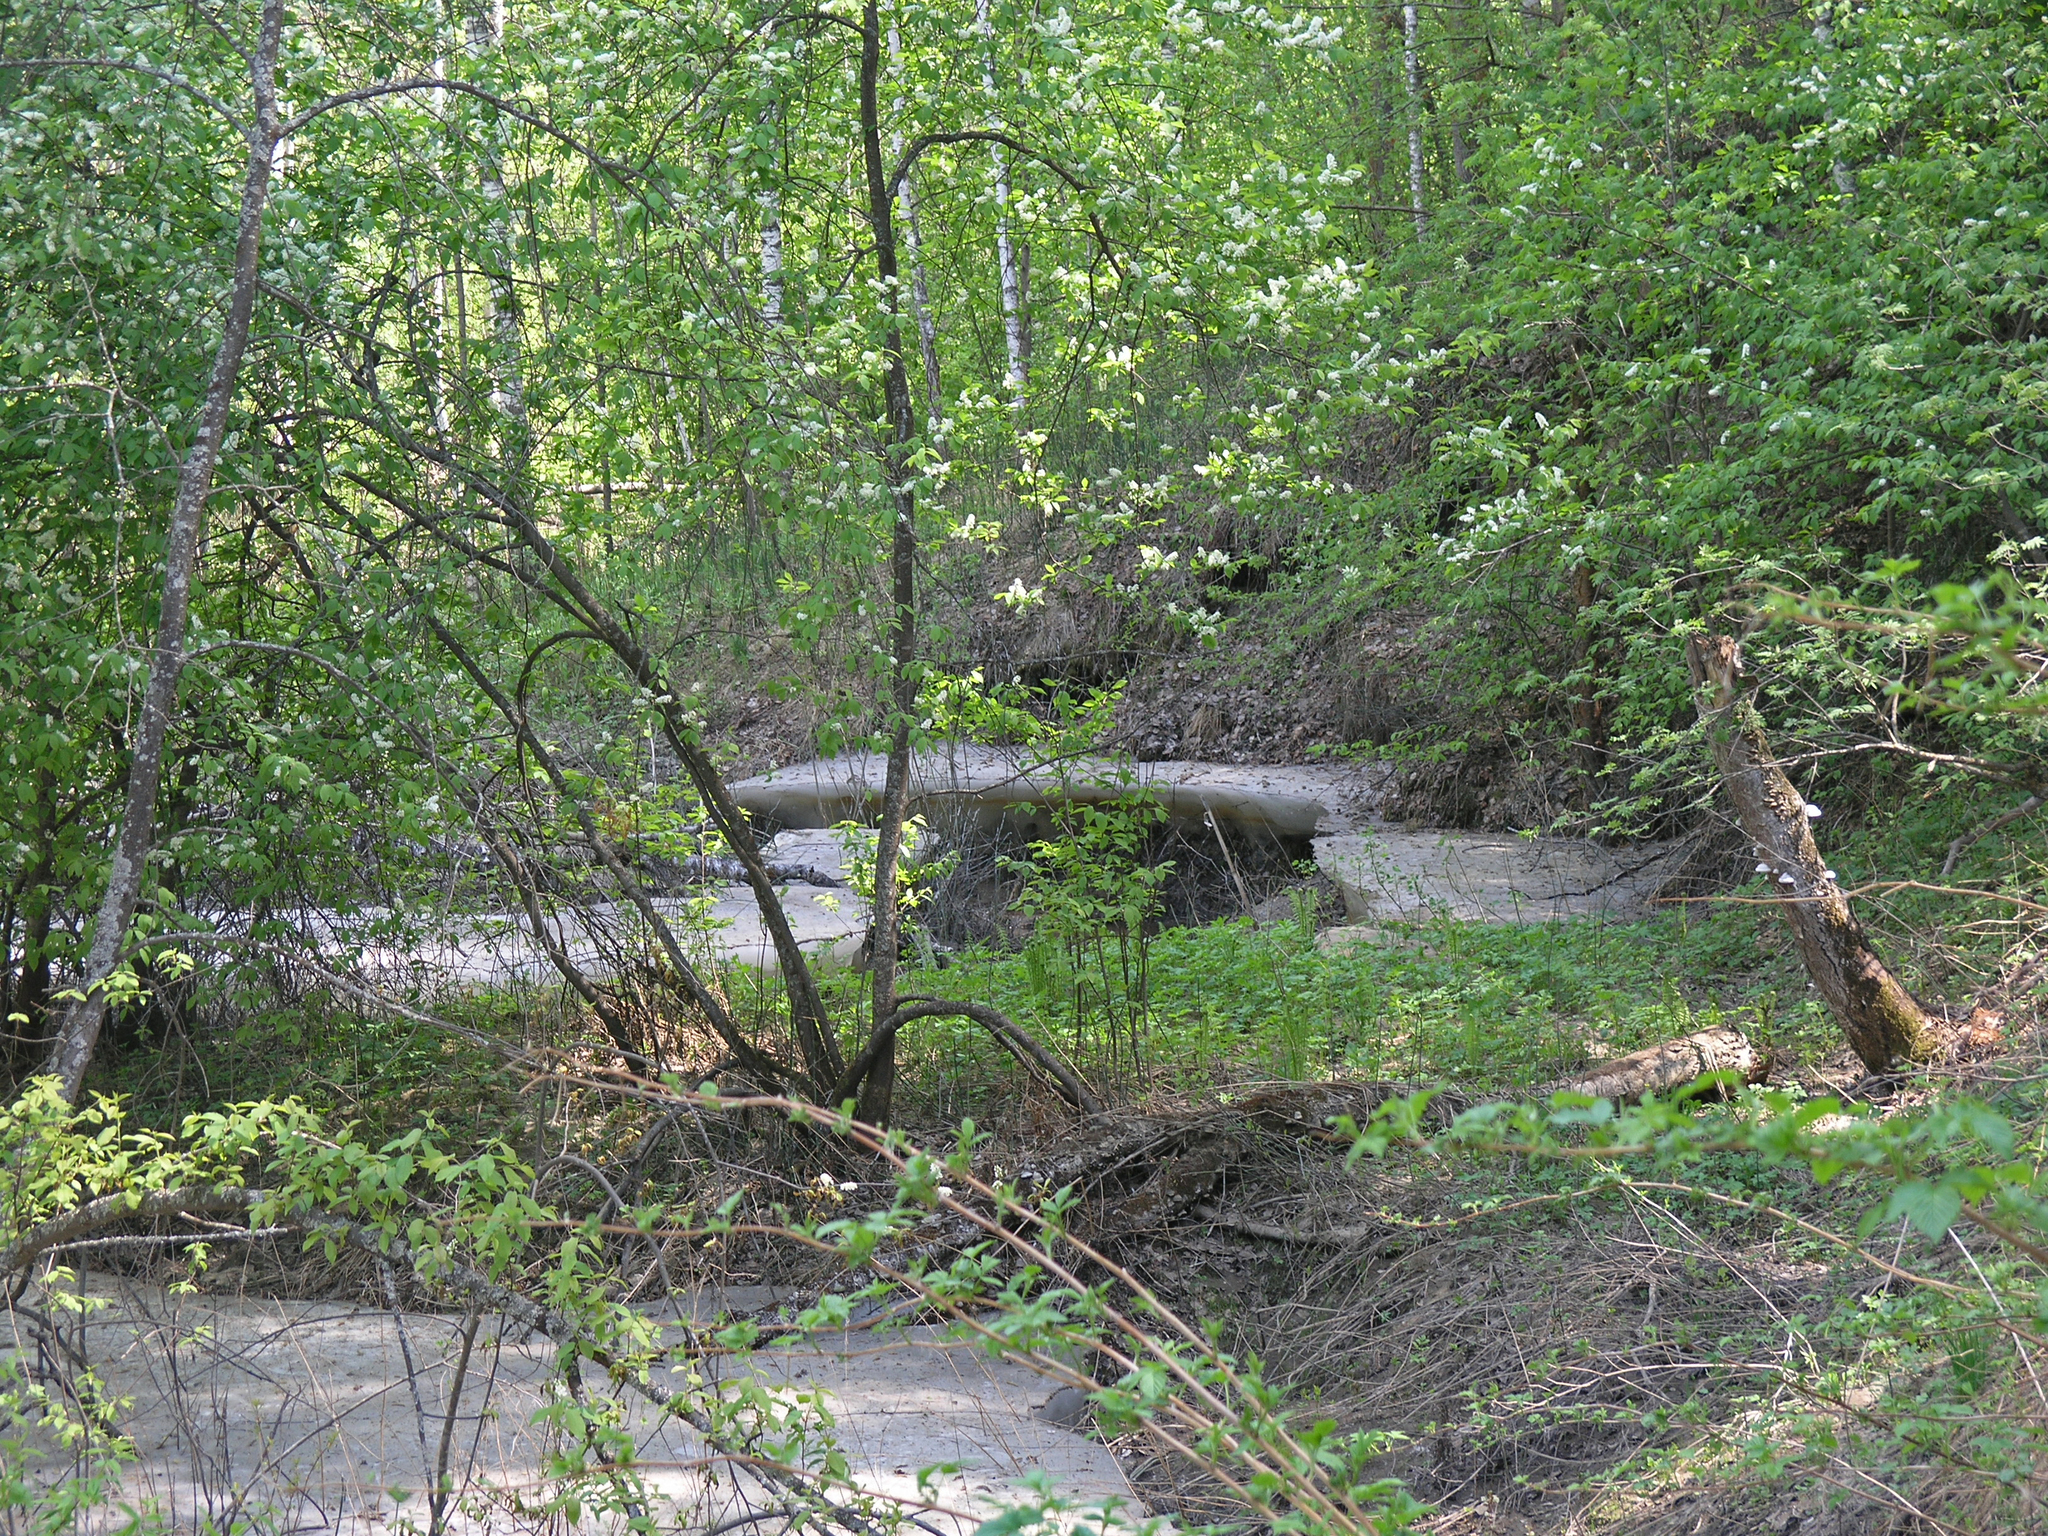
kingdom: Plantae
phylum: Tracheophyta
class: Magnoliopsida
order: Rosales
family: Rosaceae
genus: Prunus
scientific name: Prunus padus
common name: Bird cherry
